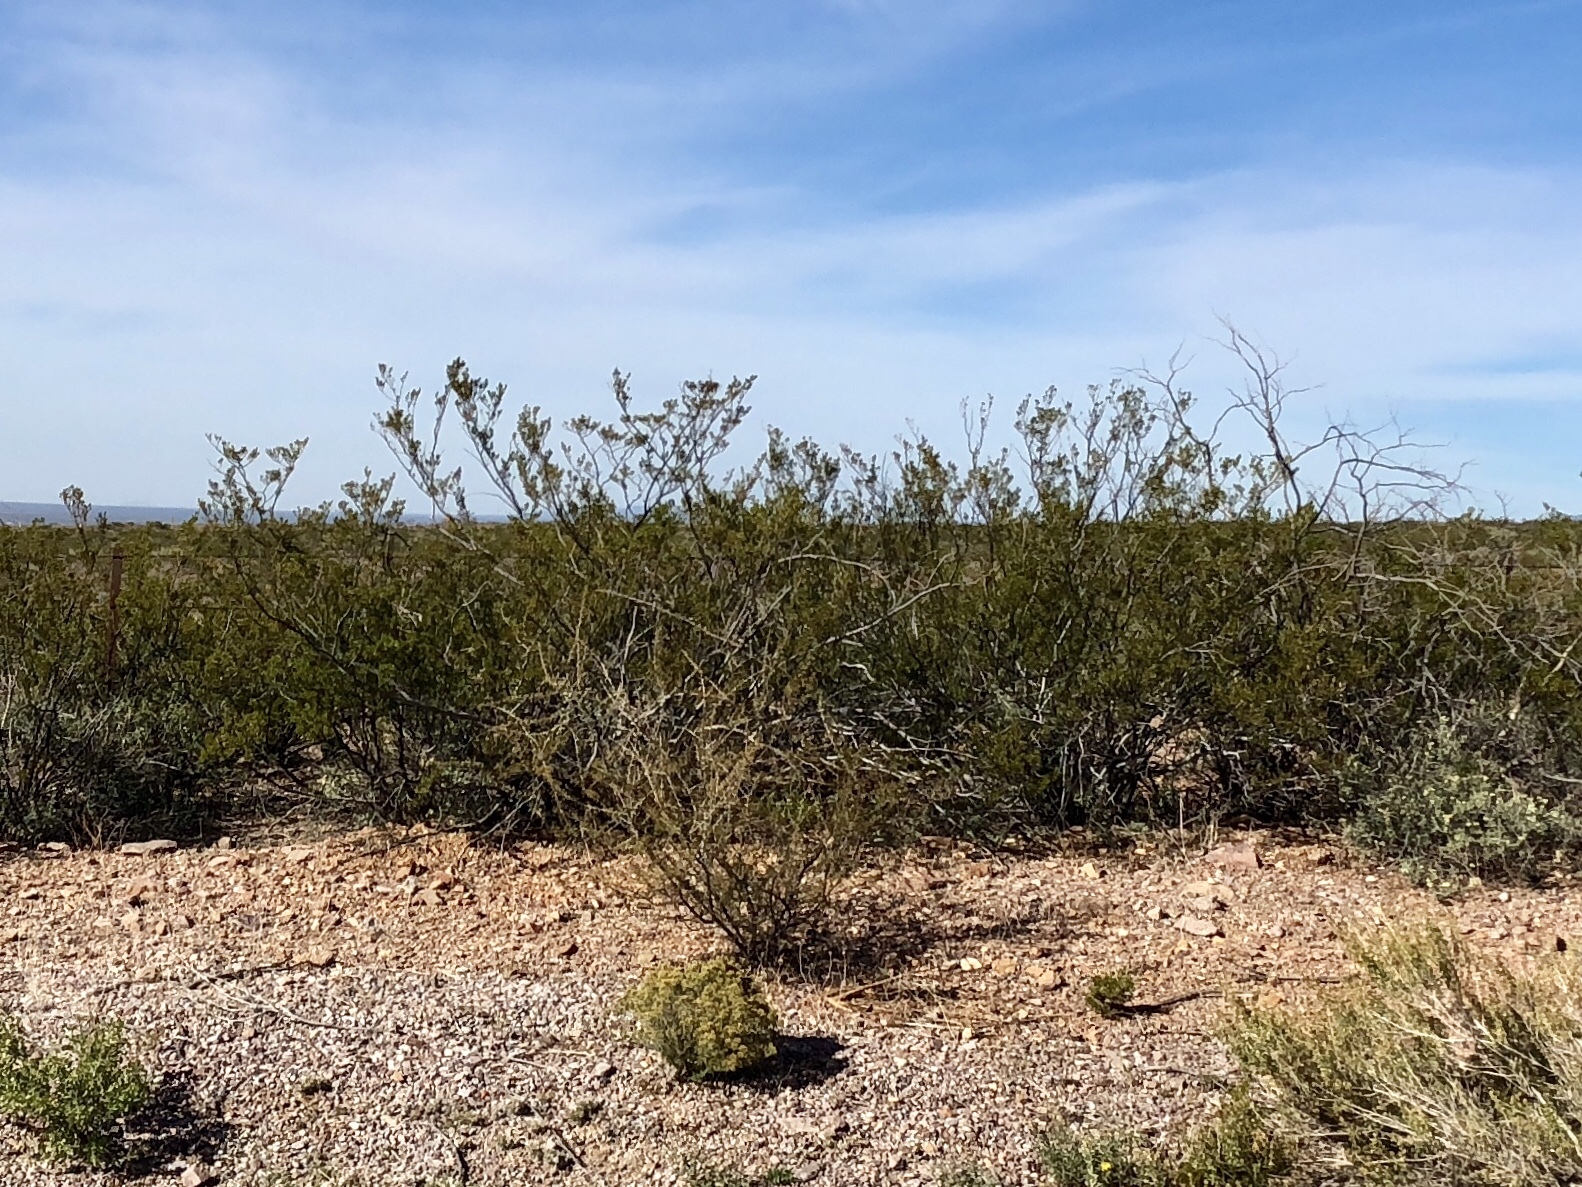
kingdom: Plantae
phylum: Tracheophyta
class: Magnoliopsida
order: Zygophyllales
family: Zygophyllaceae
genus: Larrea
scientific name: Larrea tridentata
